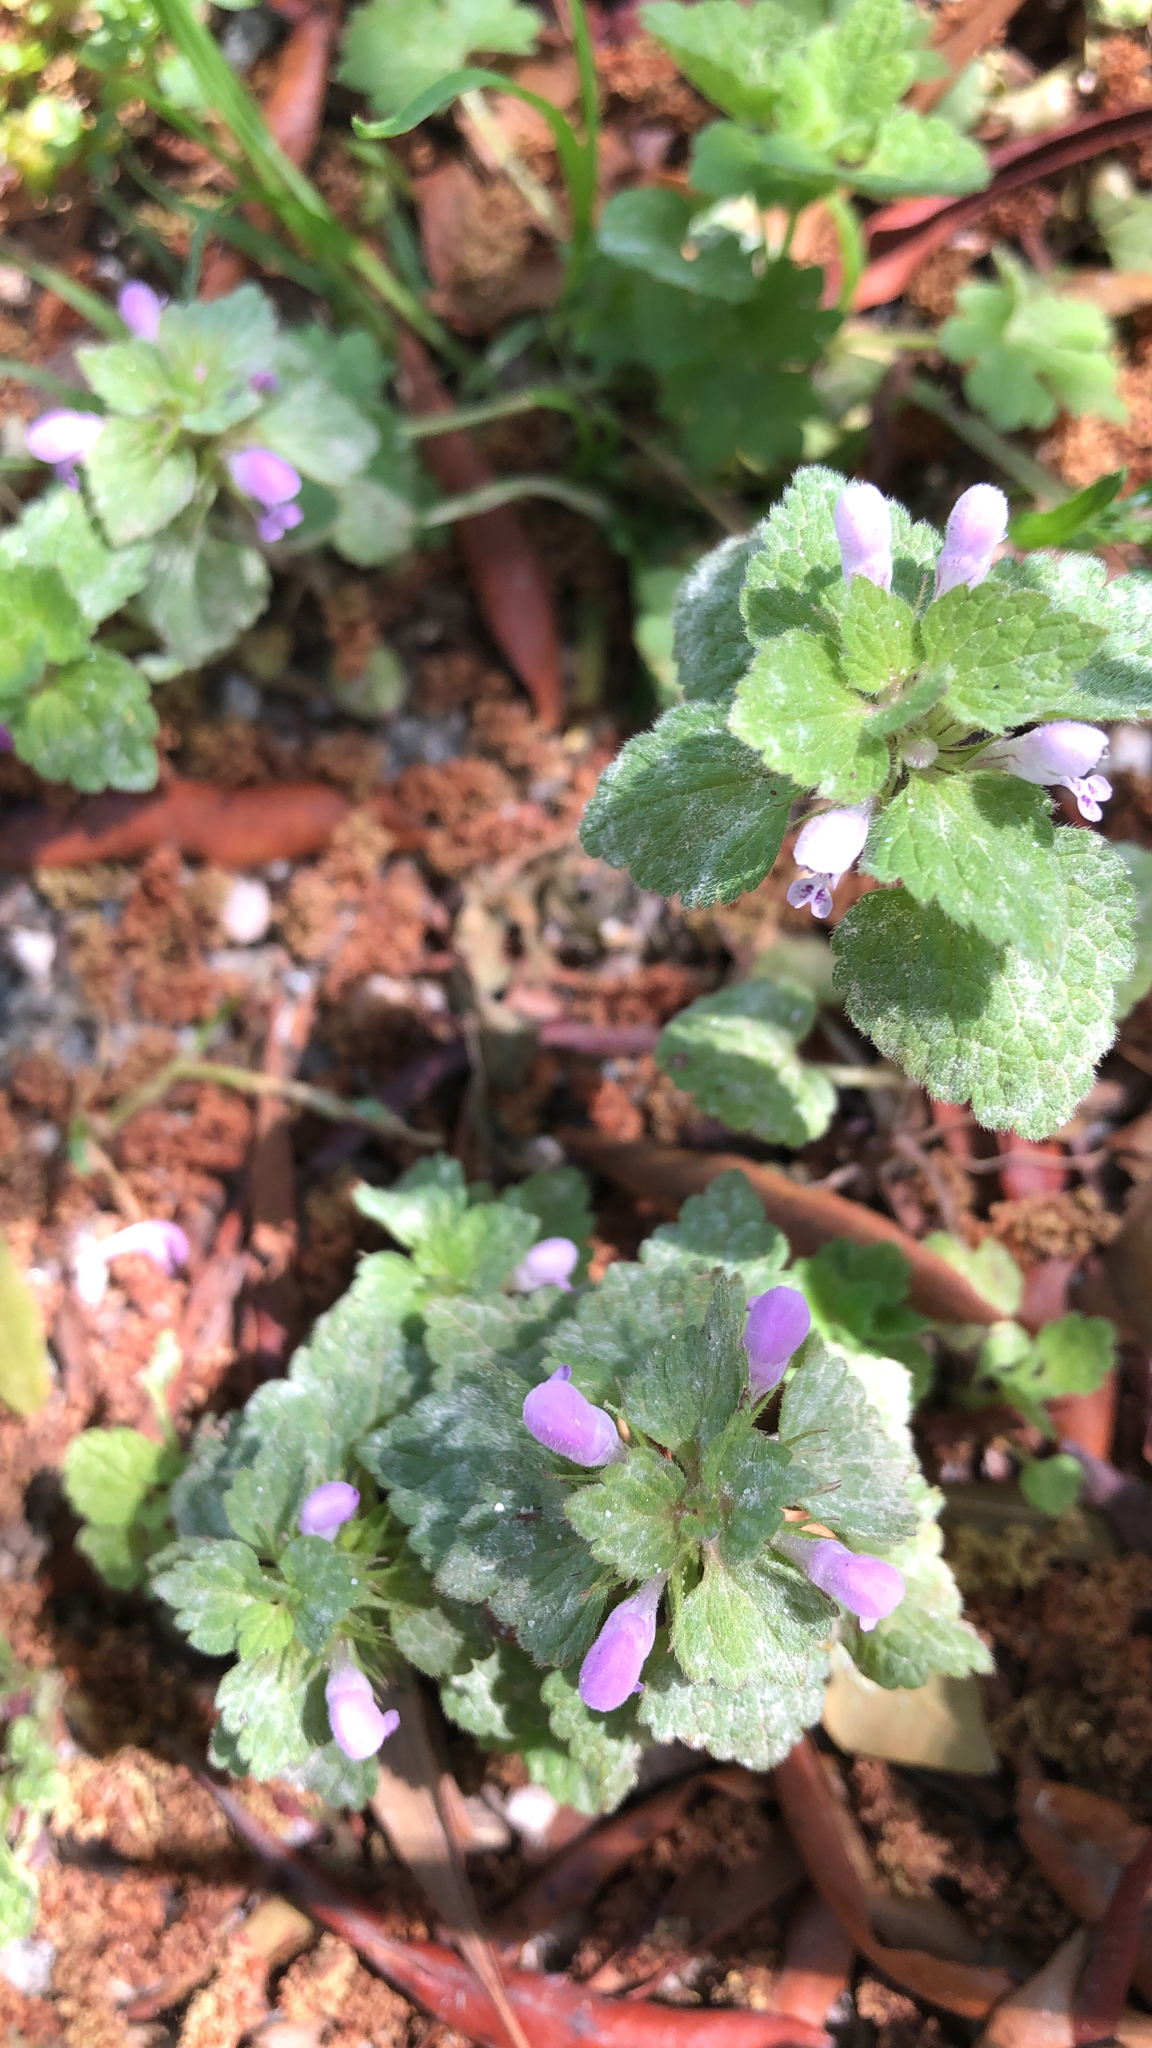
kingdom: Plantae
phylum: Tracheophyta
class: Magnoliopsida
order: Lamiales
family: Lamiaceae
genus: Lamium
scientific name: Lamium purpureum
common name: Red dead-nettle
